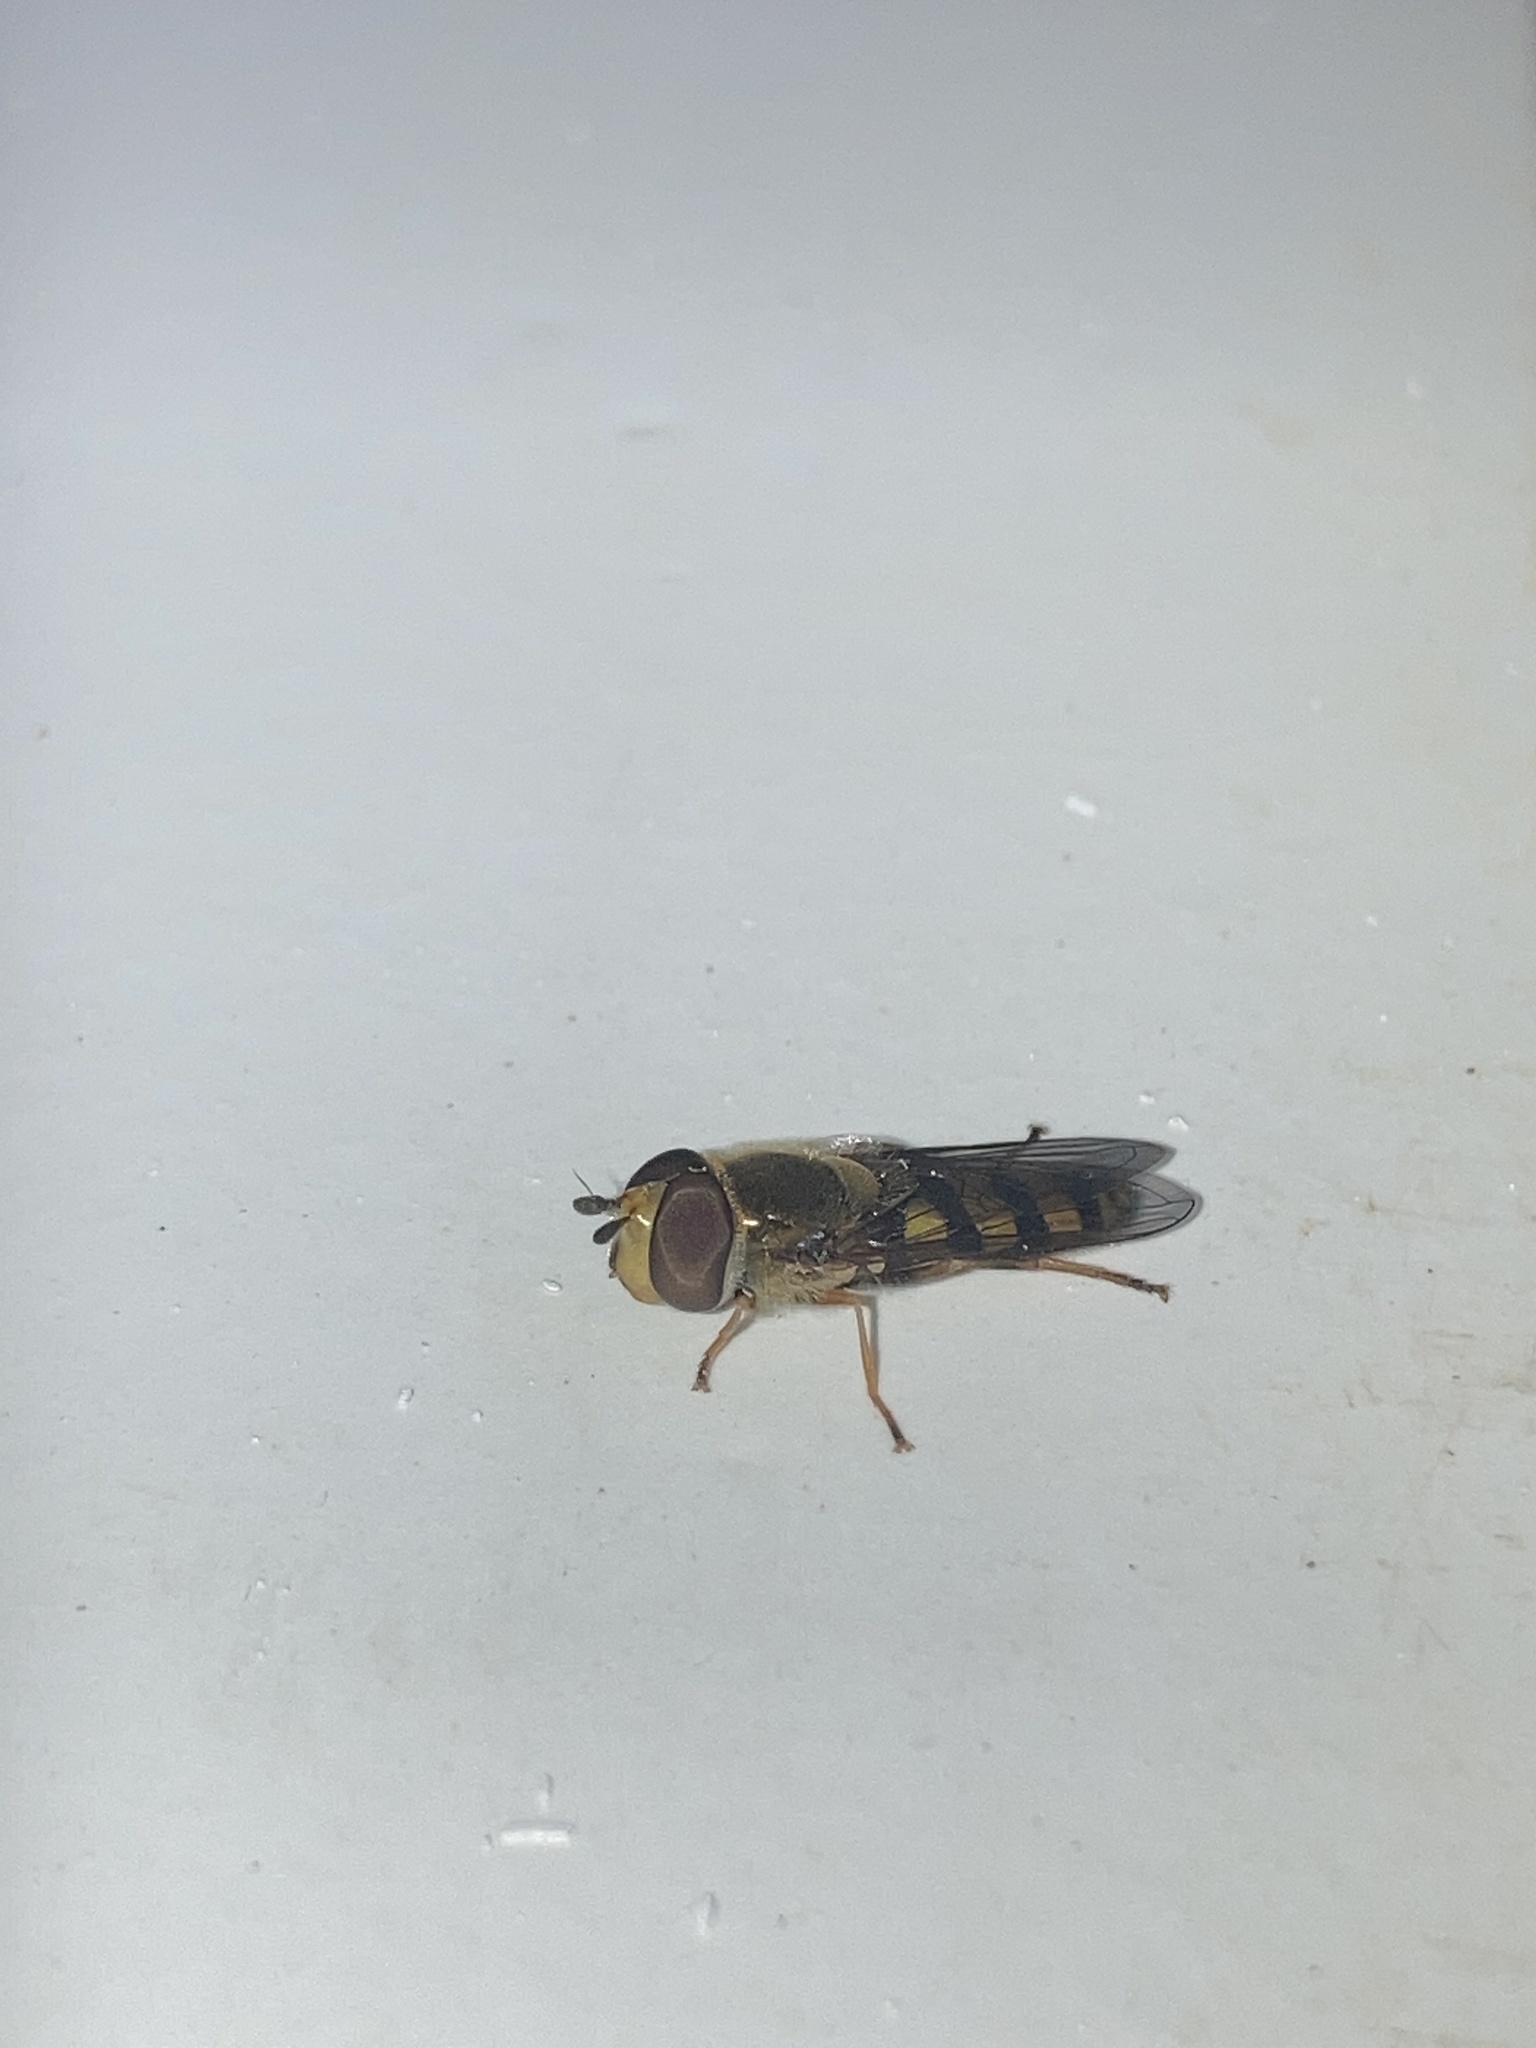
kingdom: Animalia
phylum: Arthropoda
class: Insecta
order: Diptera
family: Syrphidae
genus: Eupeodes
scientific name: Eupeodes
